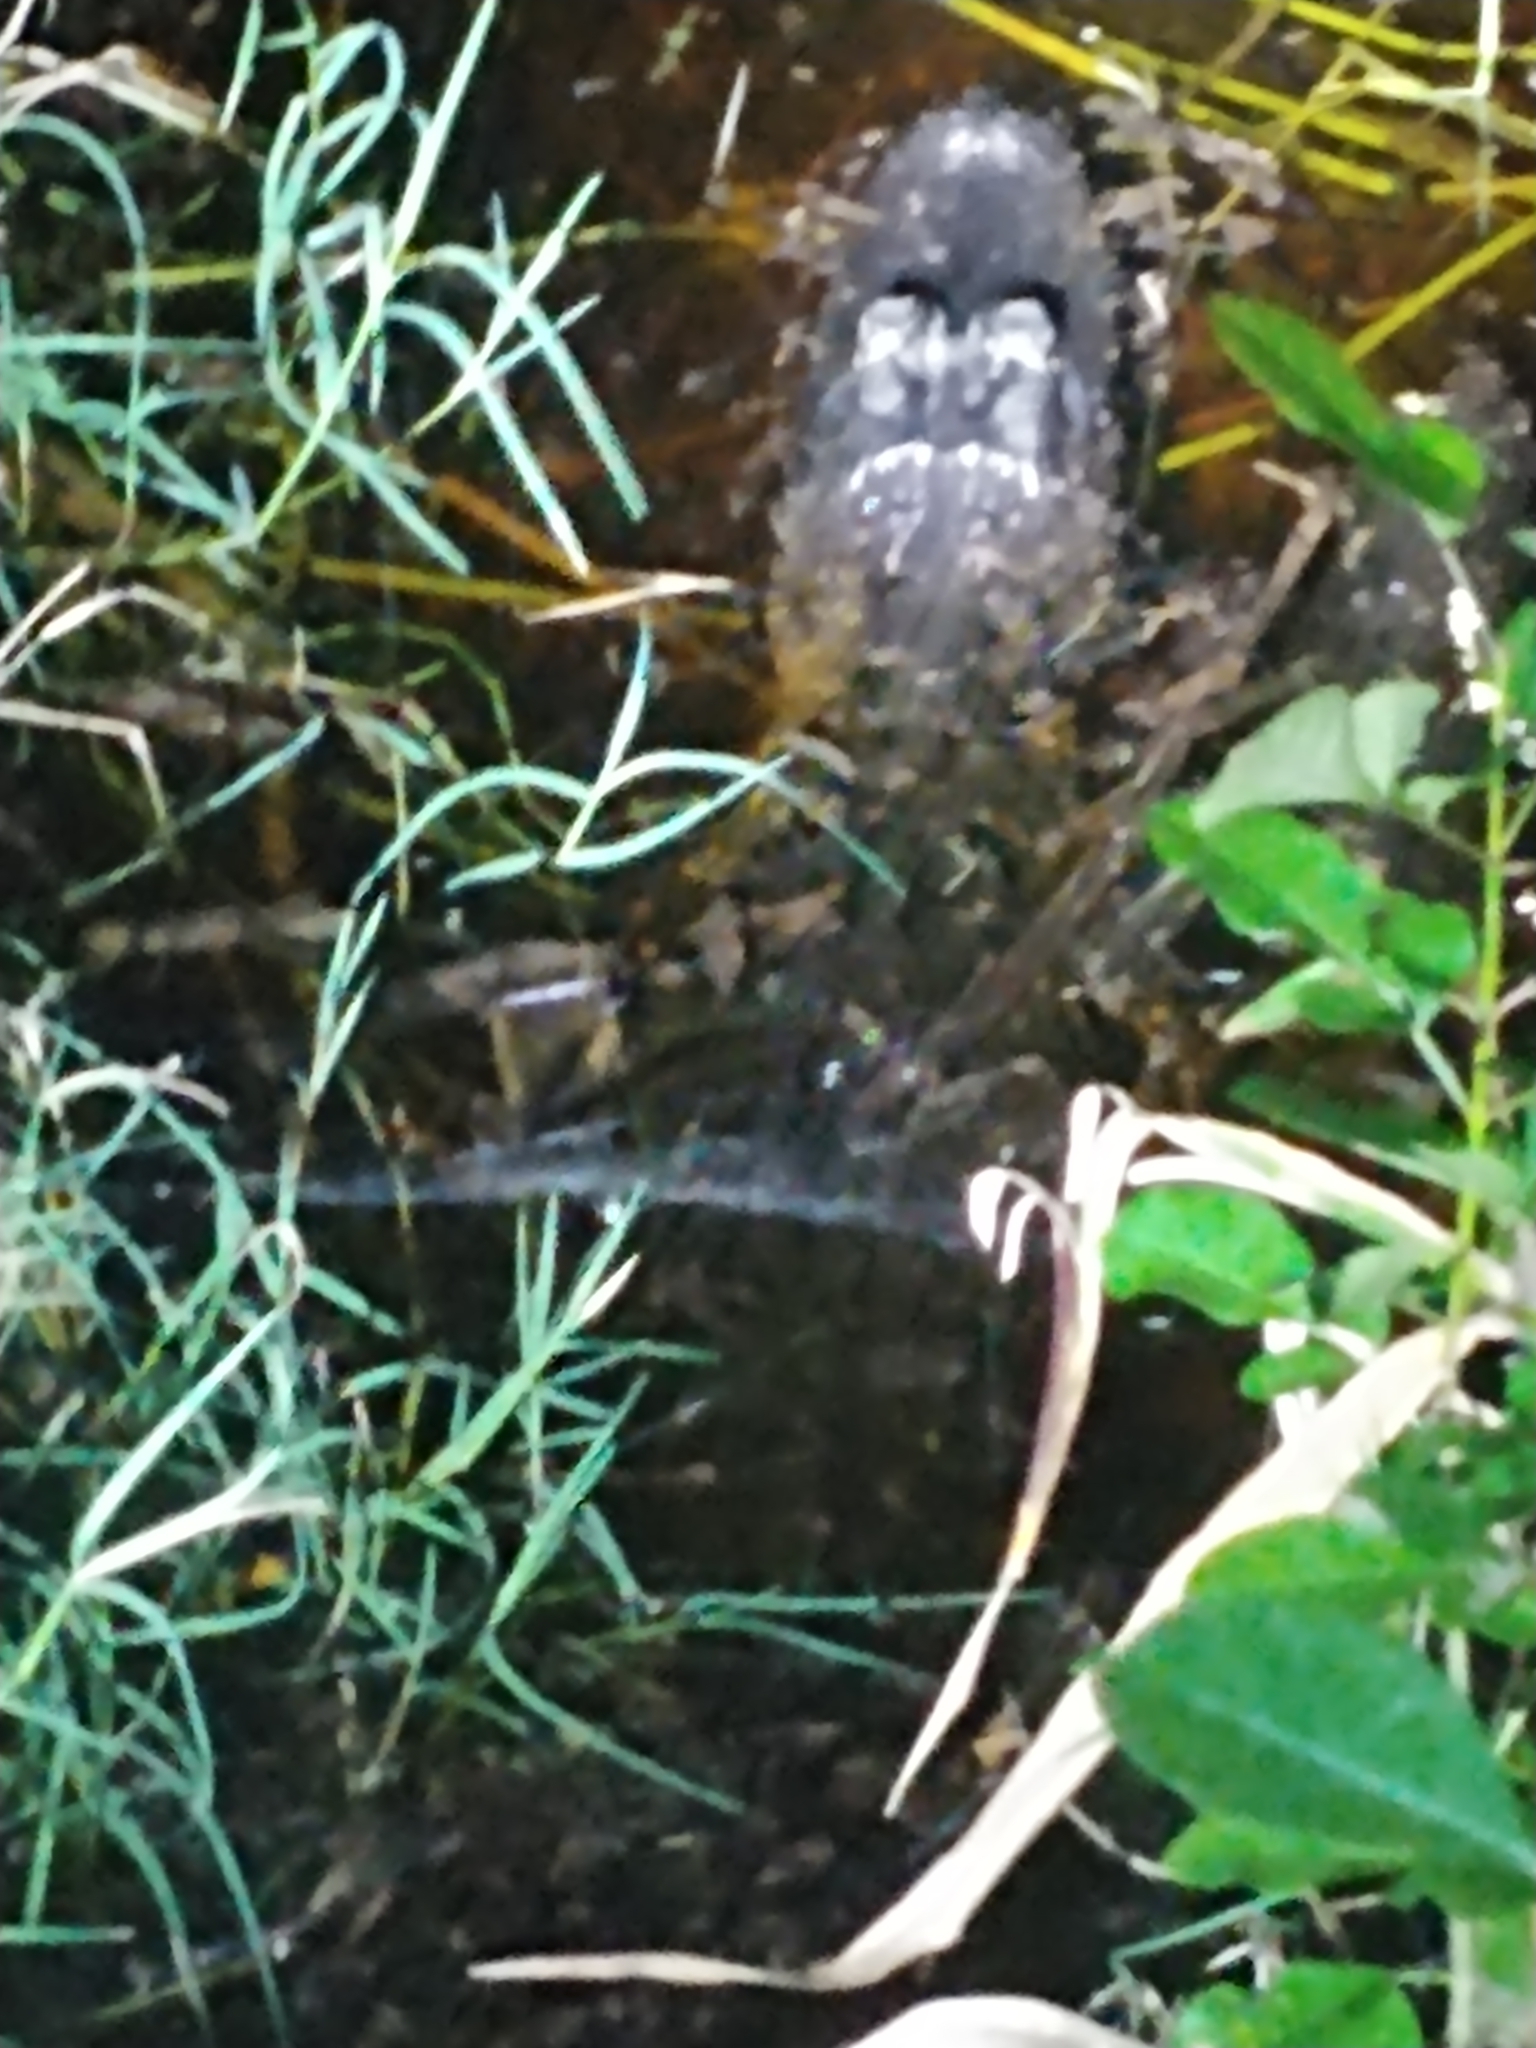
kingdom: Animalia
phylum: Chordata
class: Crocodylia
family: Alligatoridae
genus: Alligator
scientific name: Alligator mississippiensis
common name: American alligator
